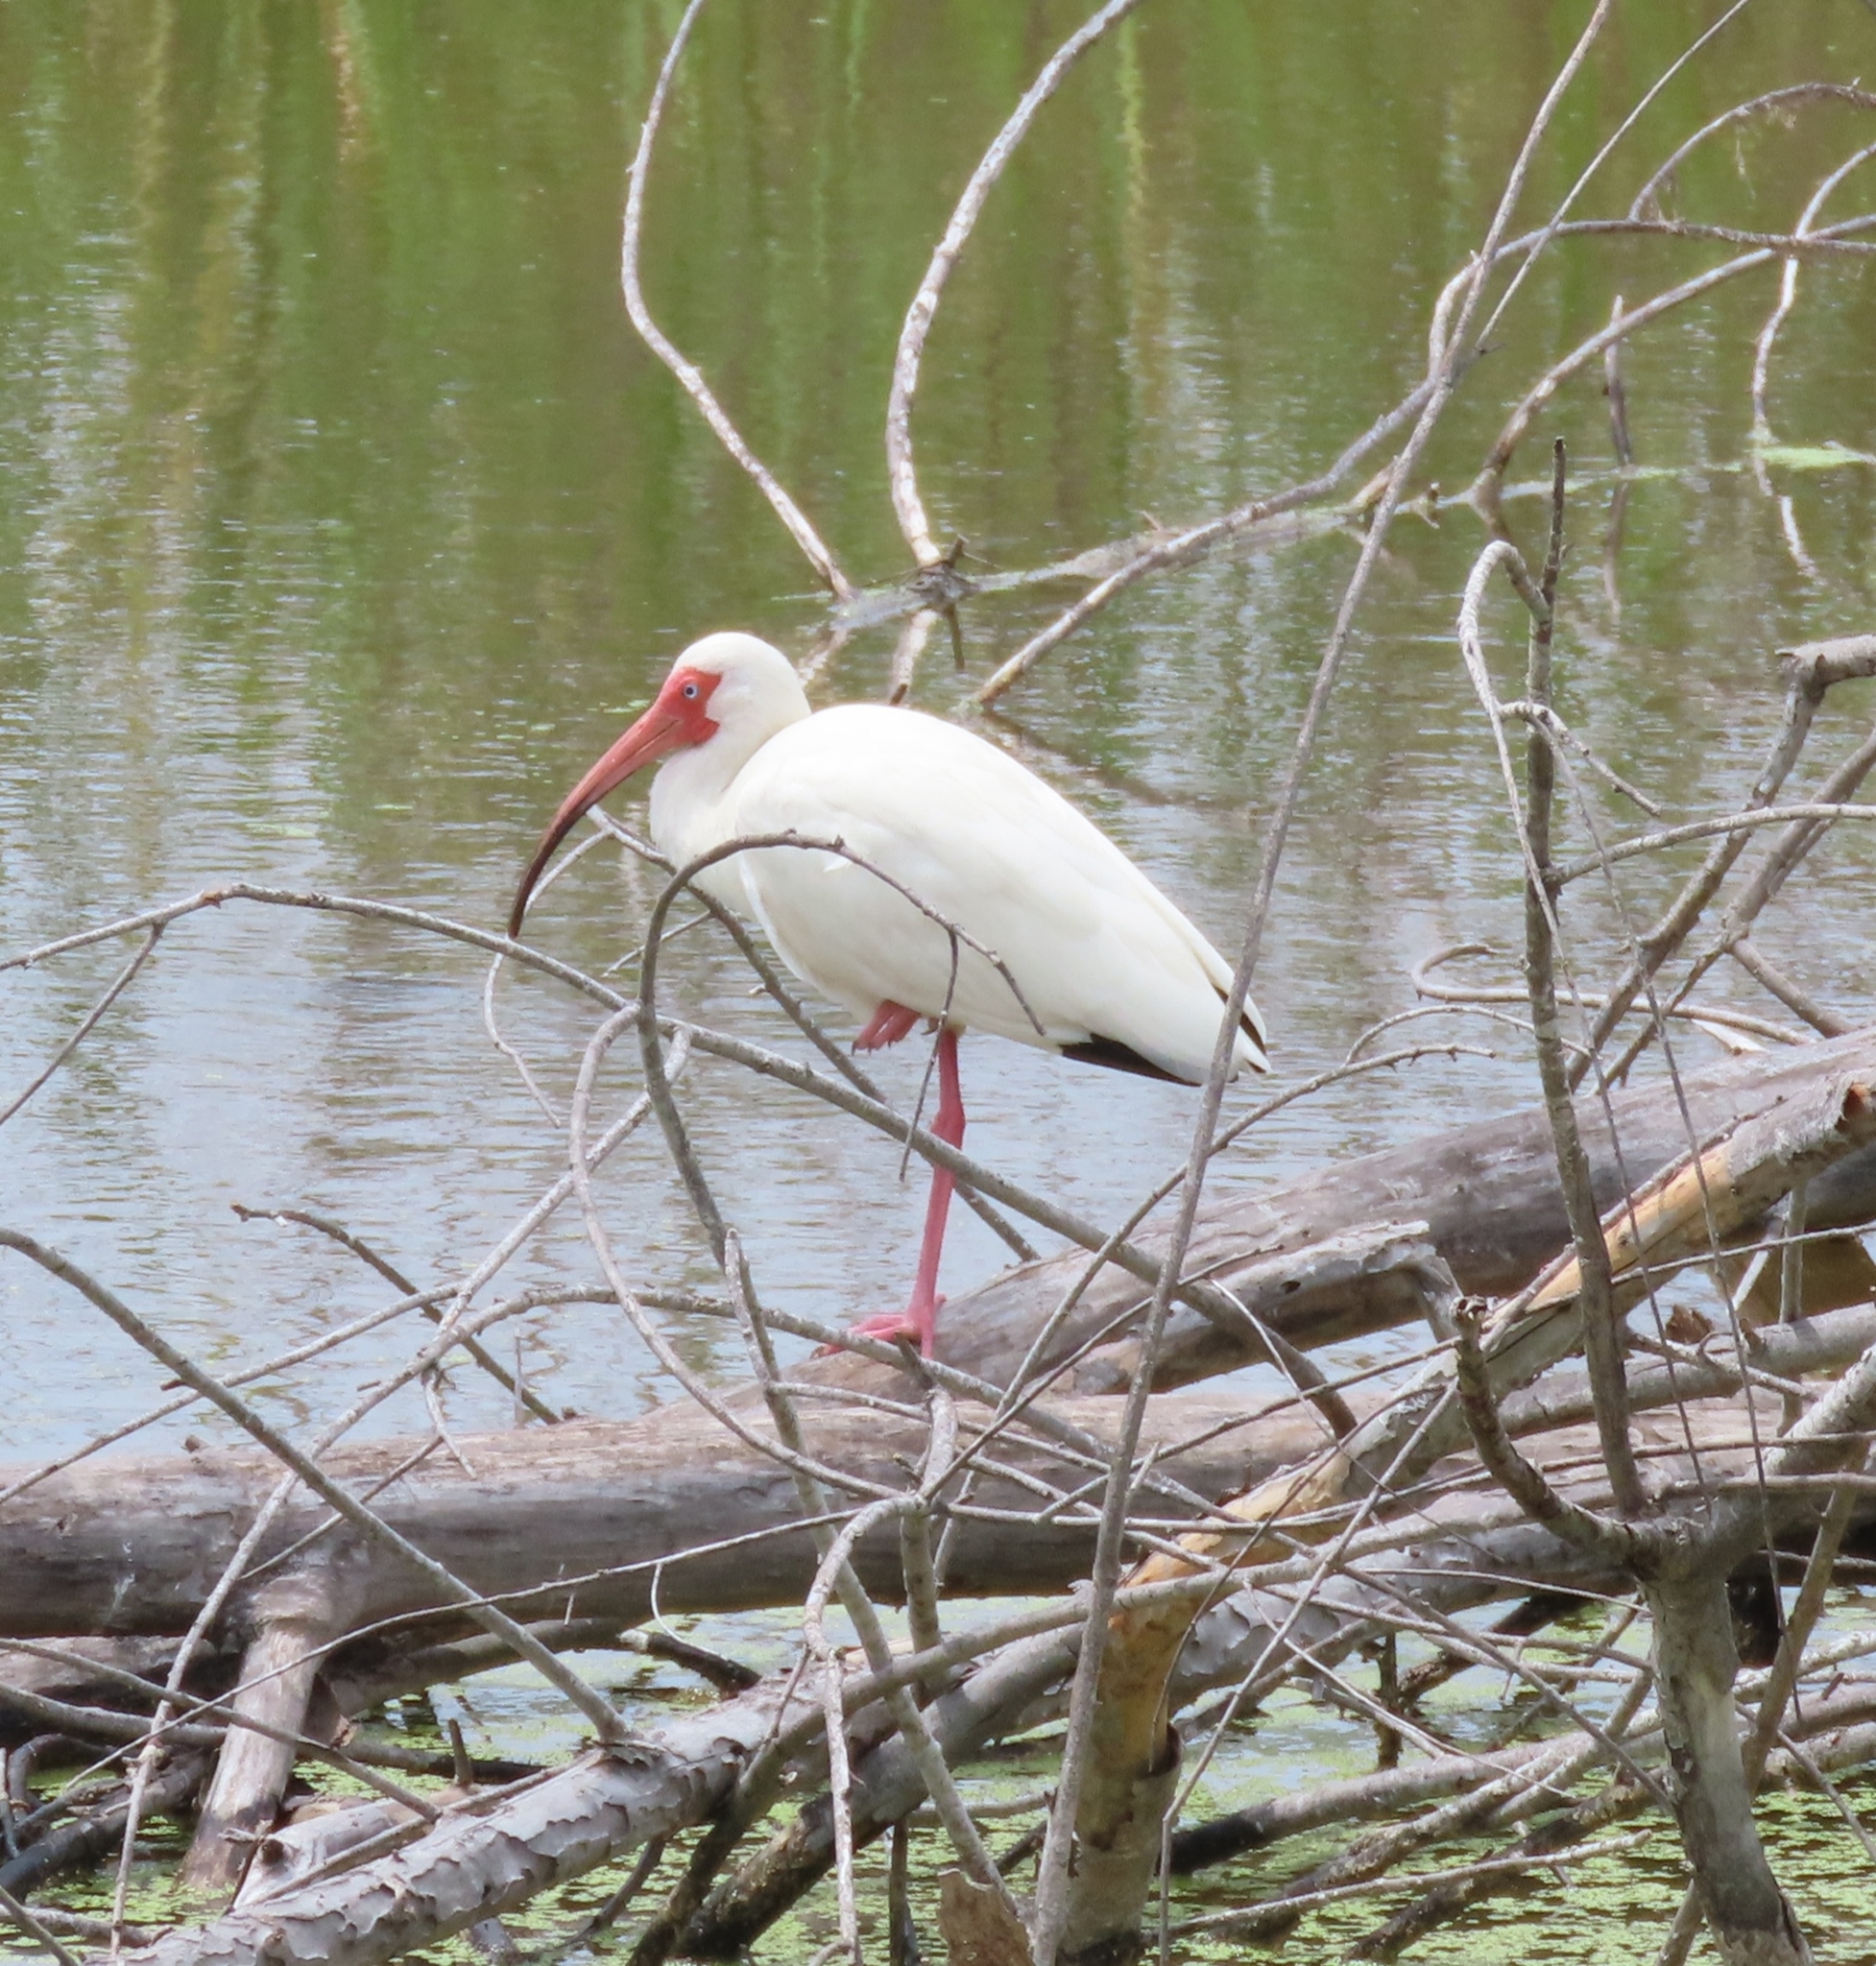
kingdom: Animalia
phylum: Chordata
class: Aves
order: Pelecaniformes
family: Threskiornithidae
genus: Eudocimus
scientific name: Eudocimus albus
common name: White ibis
